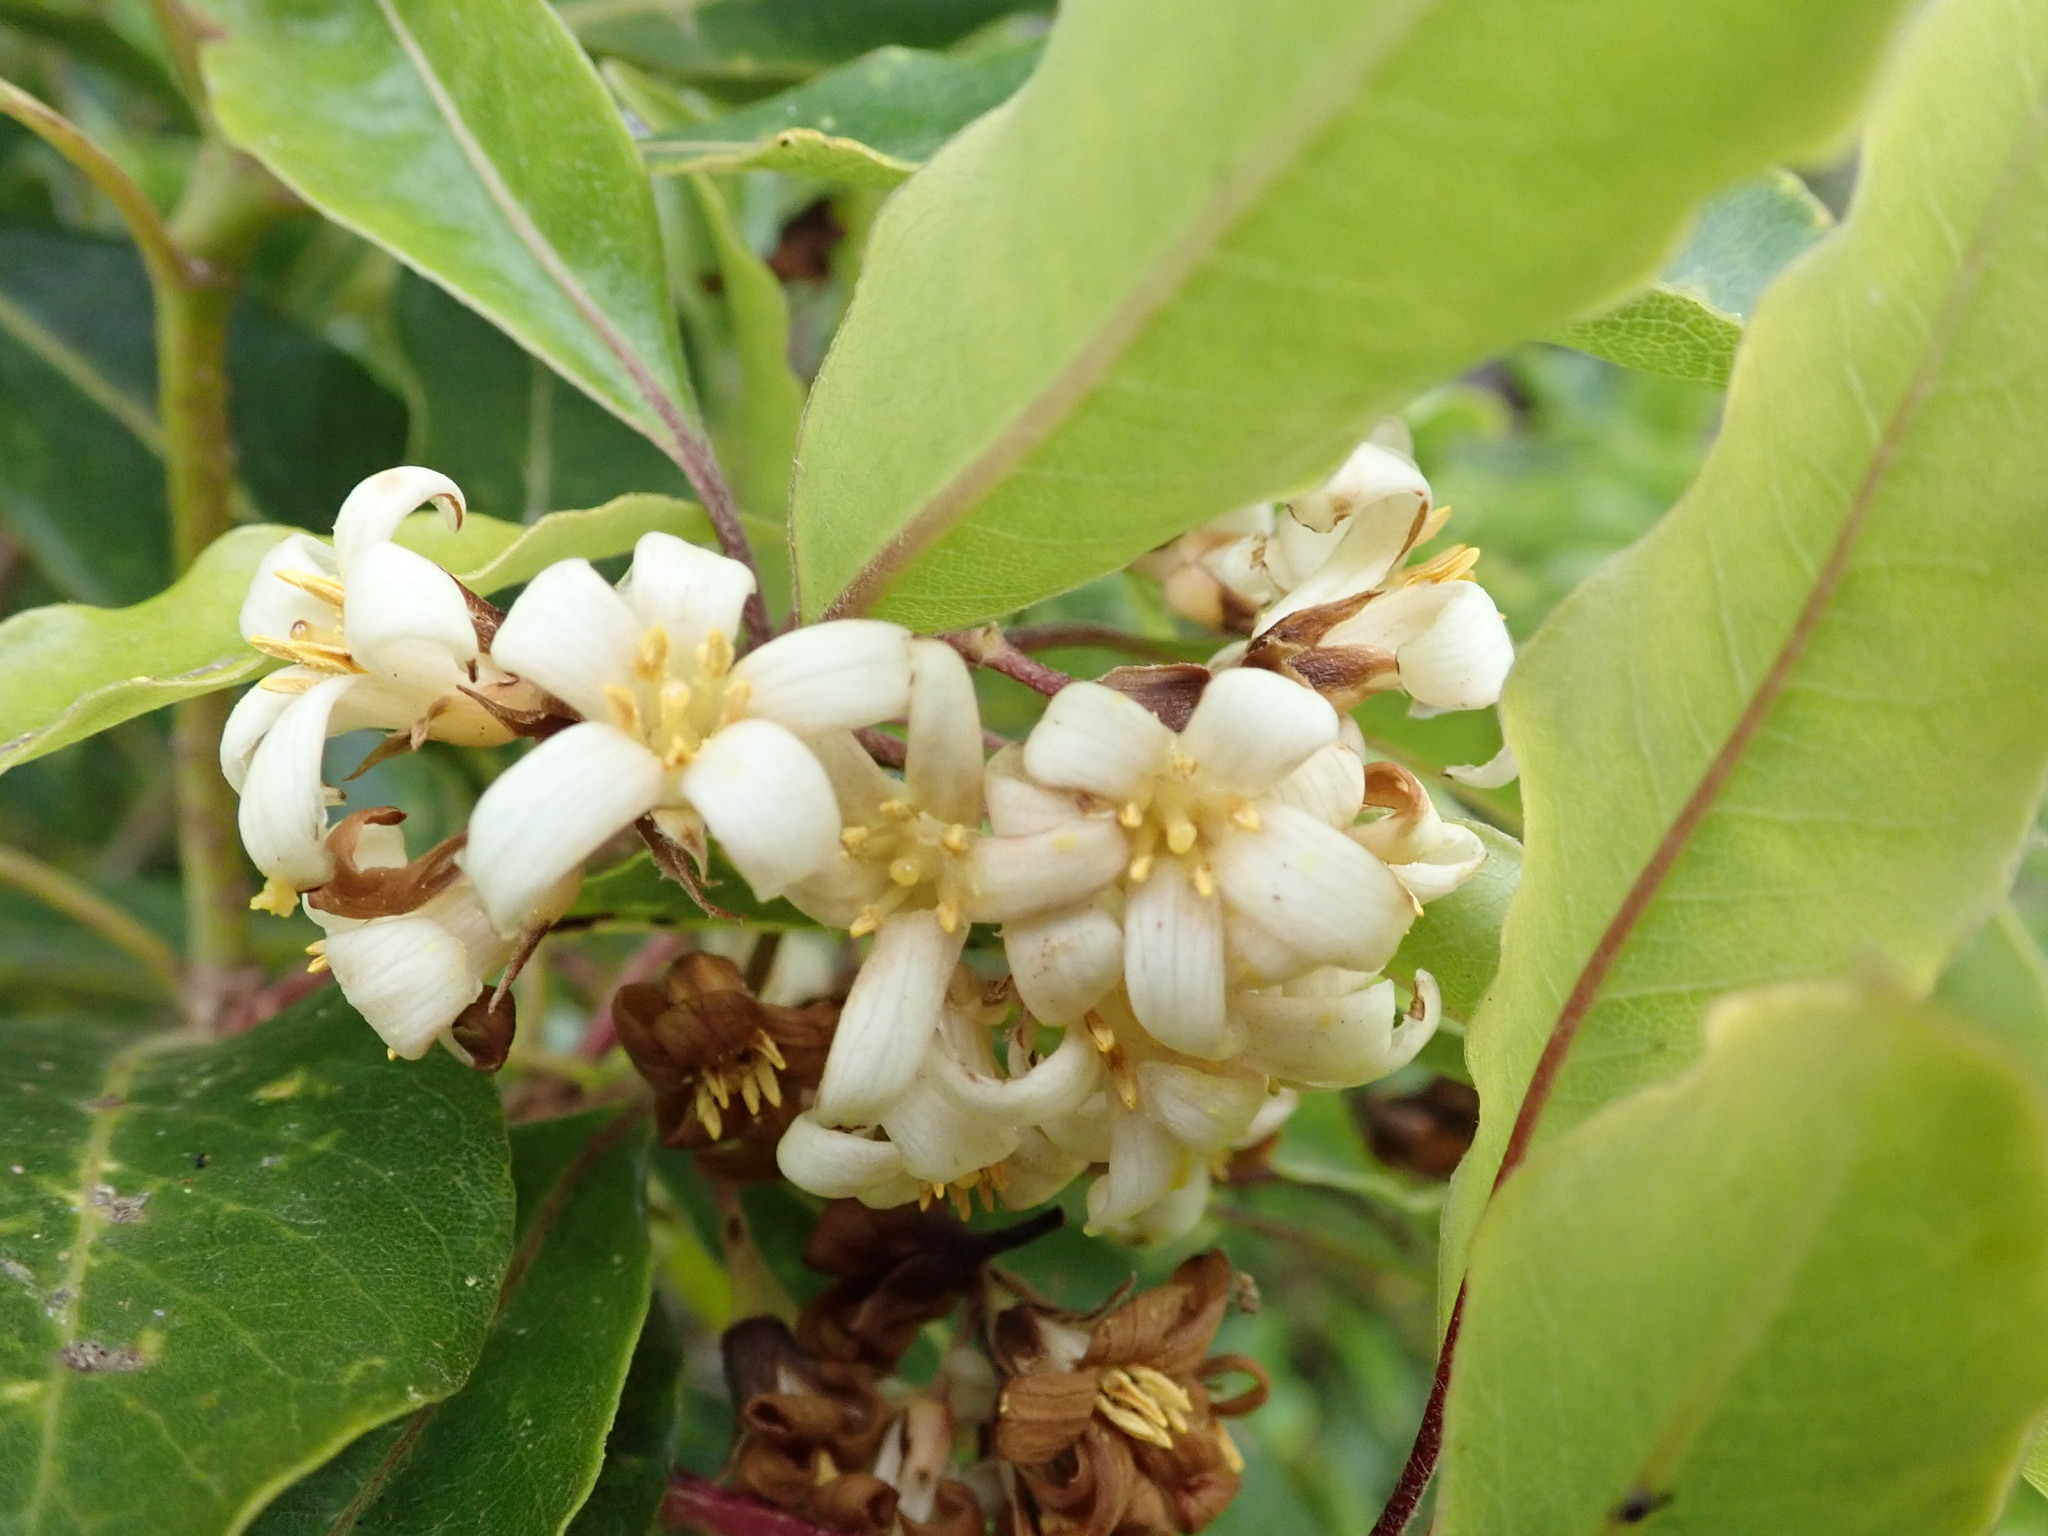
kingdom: Plantae
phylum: Tracheophyta
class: Magnoliopsida
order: Apiales
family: Pittosporaceae
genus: Pittosporum
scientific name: Pittosporum undulatum
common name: Australian cheesewood
